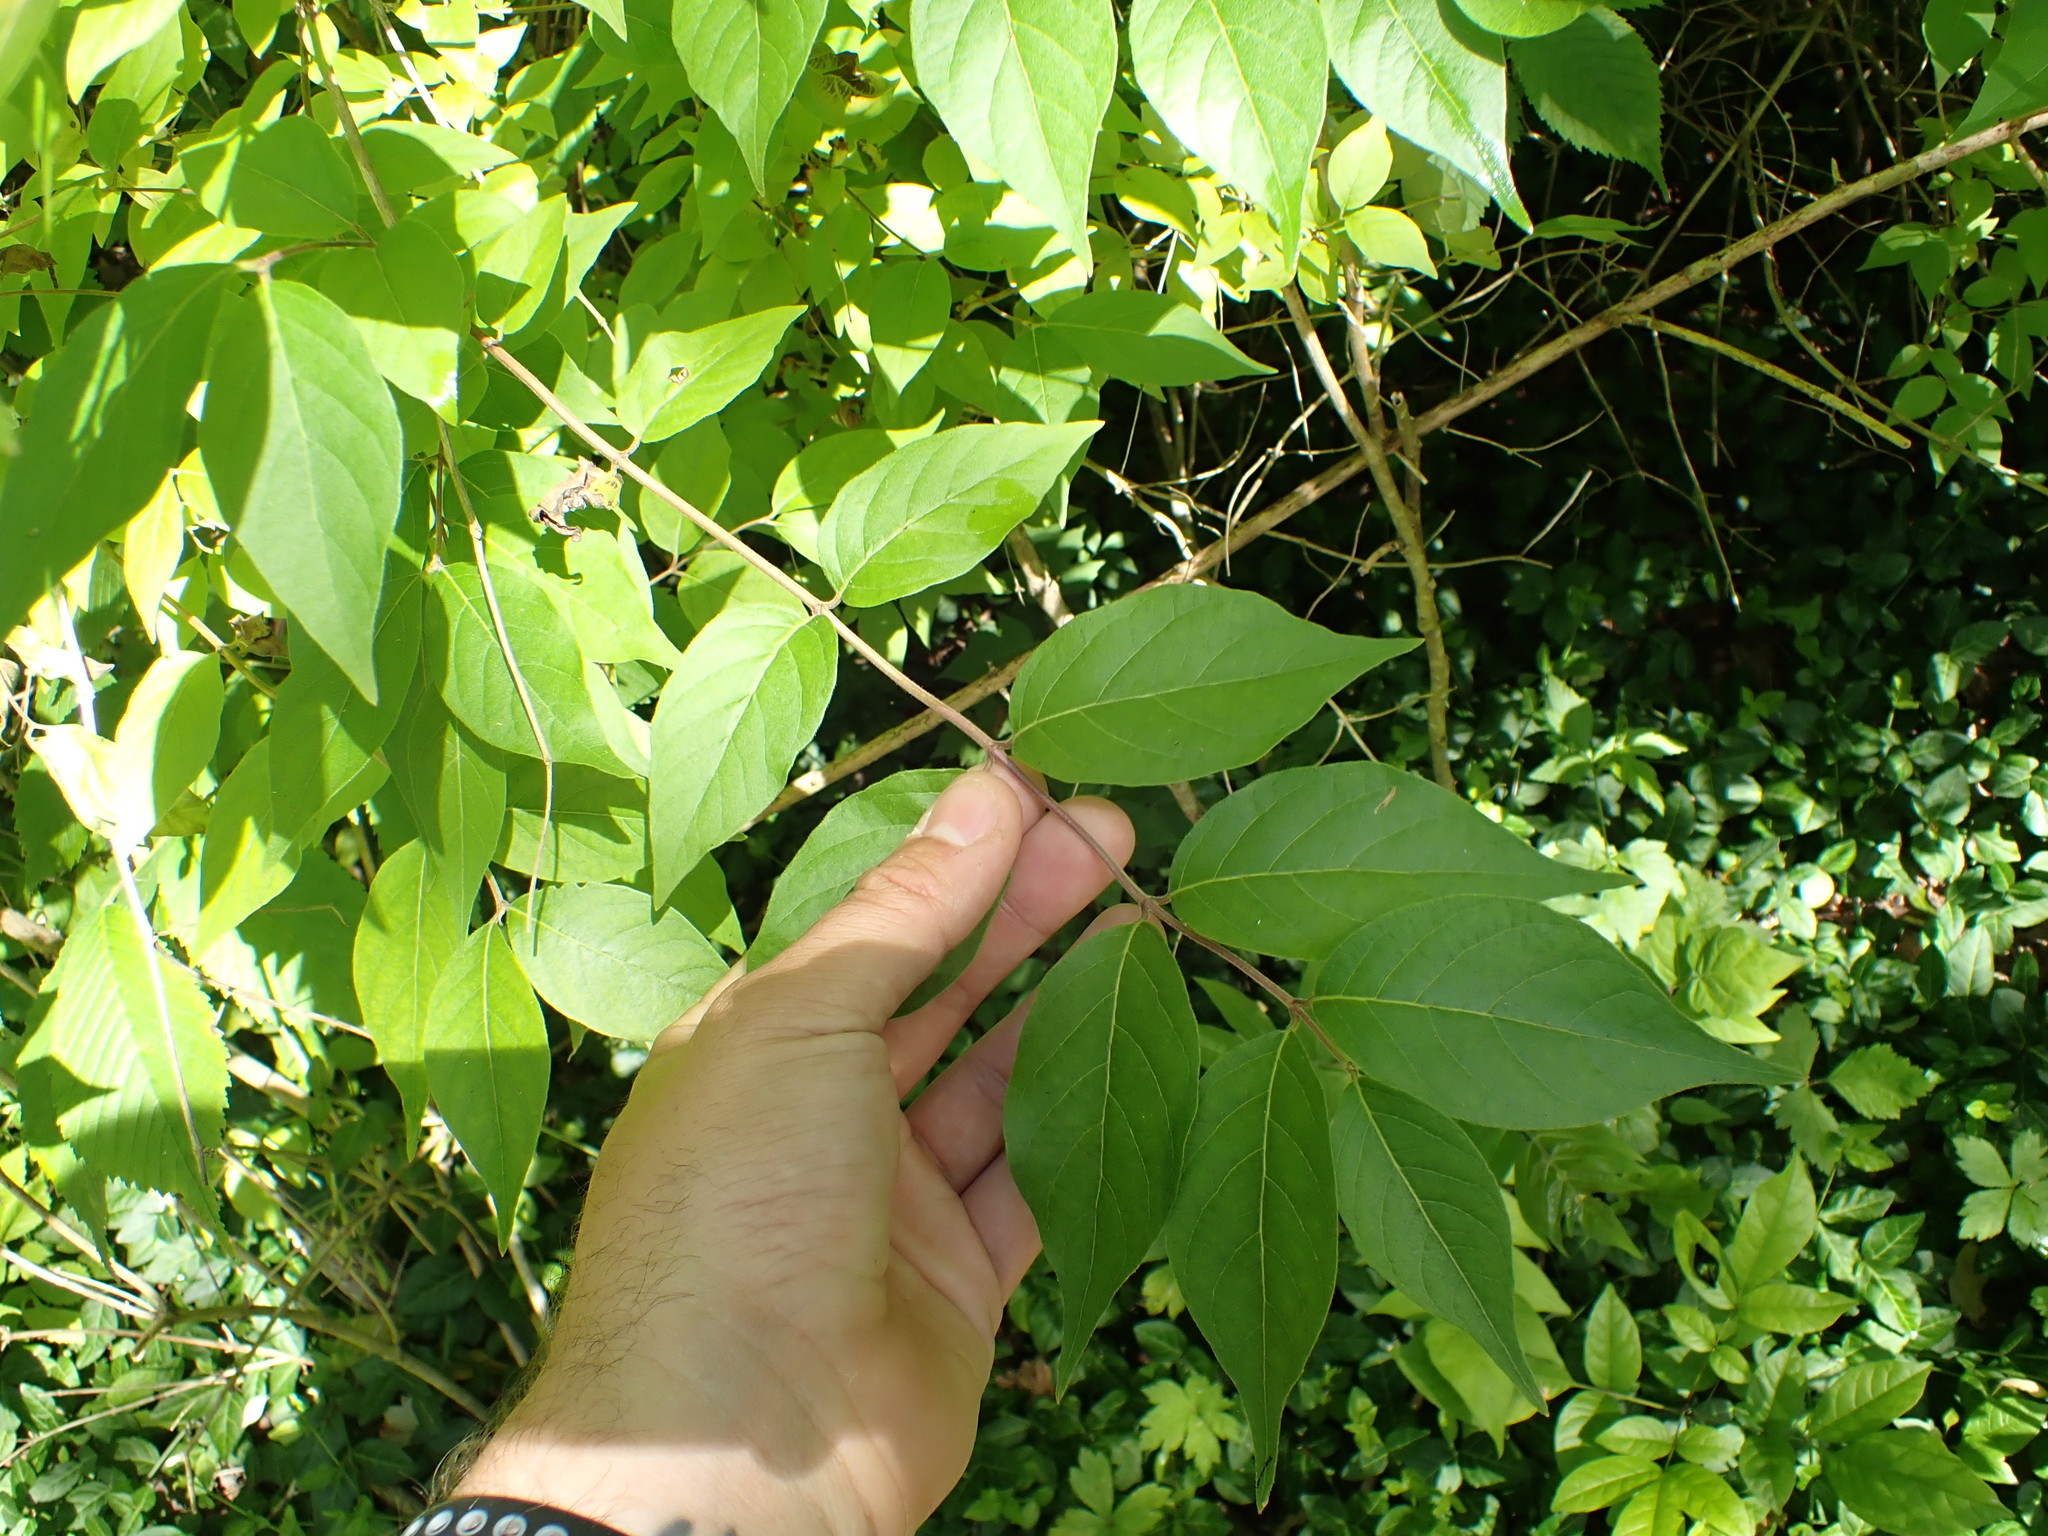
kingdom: Plantae
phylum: Tracheophyta
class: Magnoliopsida
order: Dipsacales
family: Caprifoliaceae
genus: Lonicera
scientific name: Lonicera maackii
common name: Amur honeysuckle
